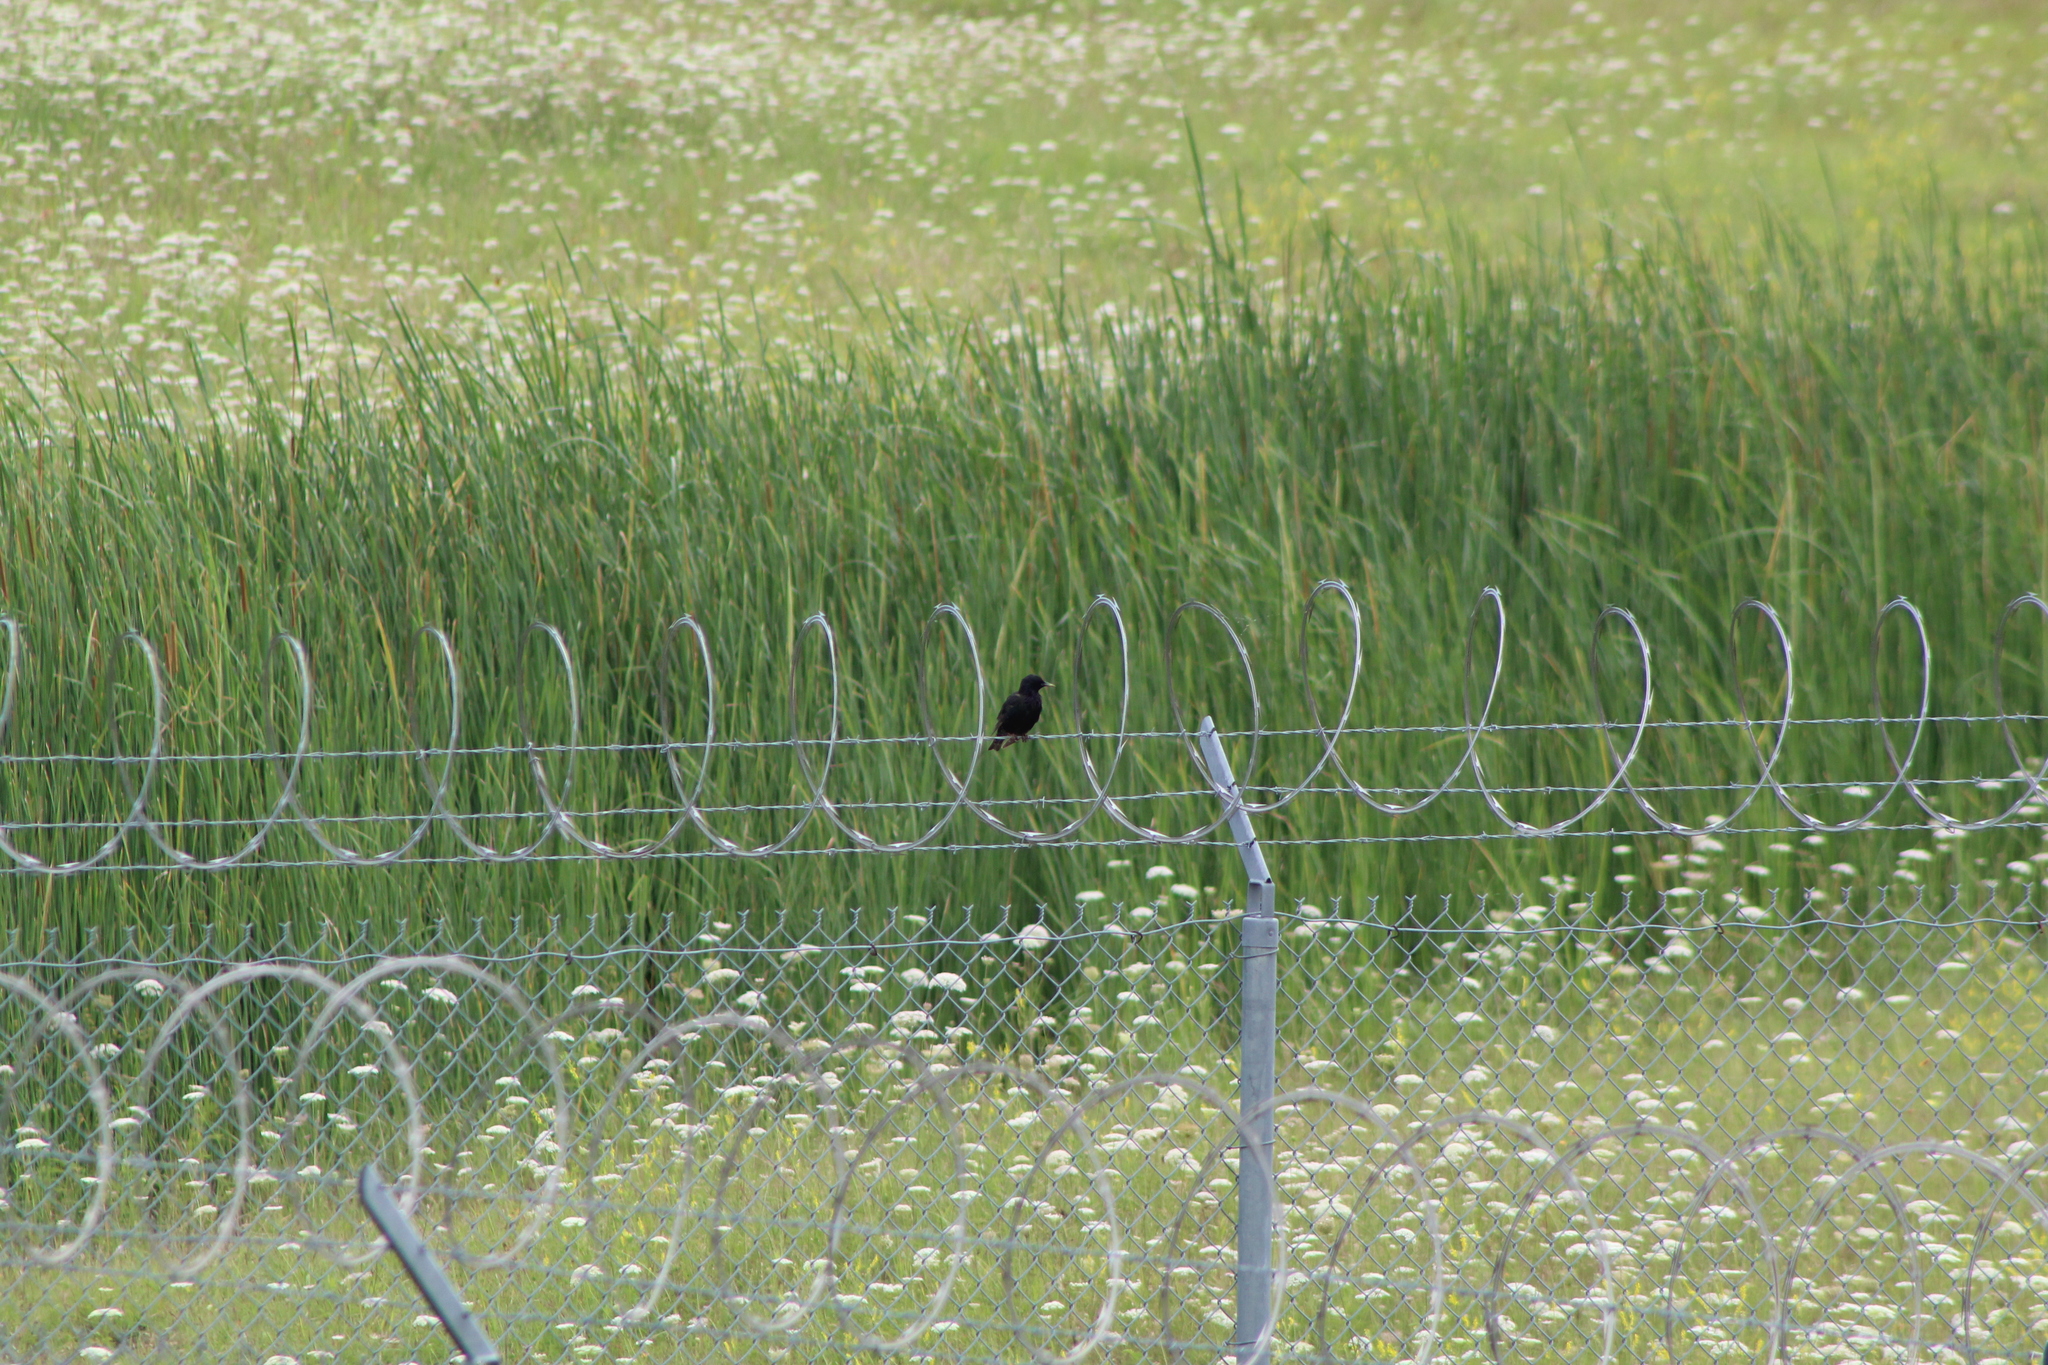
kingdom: Animalia
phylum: Chordata
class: Aves
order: Passeriformes
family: Sturnidae
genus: Sturnus
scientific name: Sturnus vulgaris
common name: Common starling
